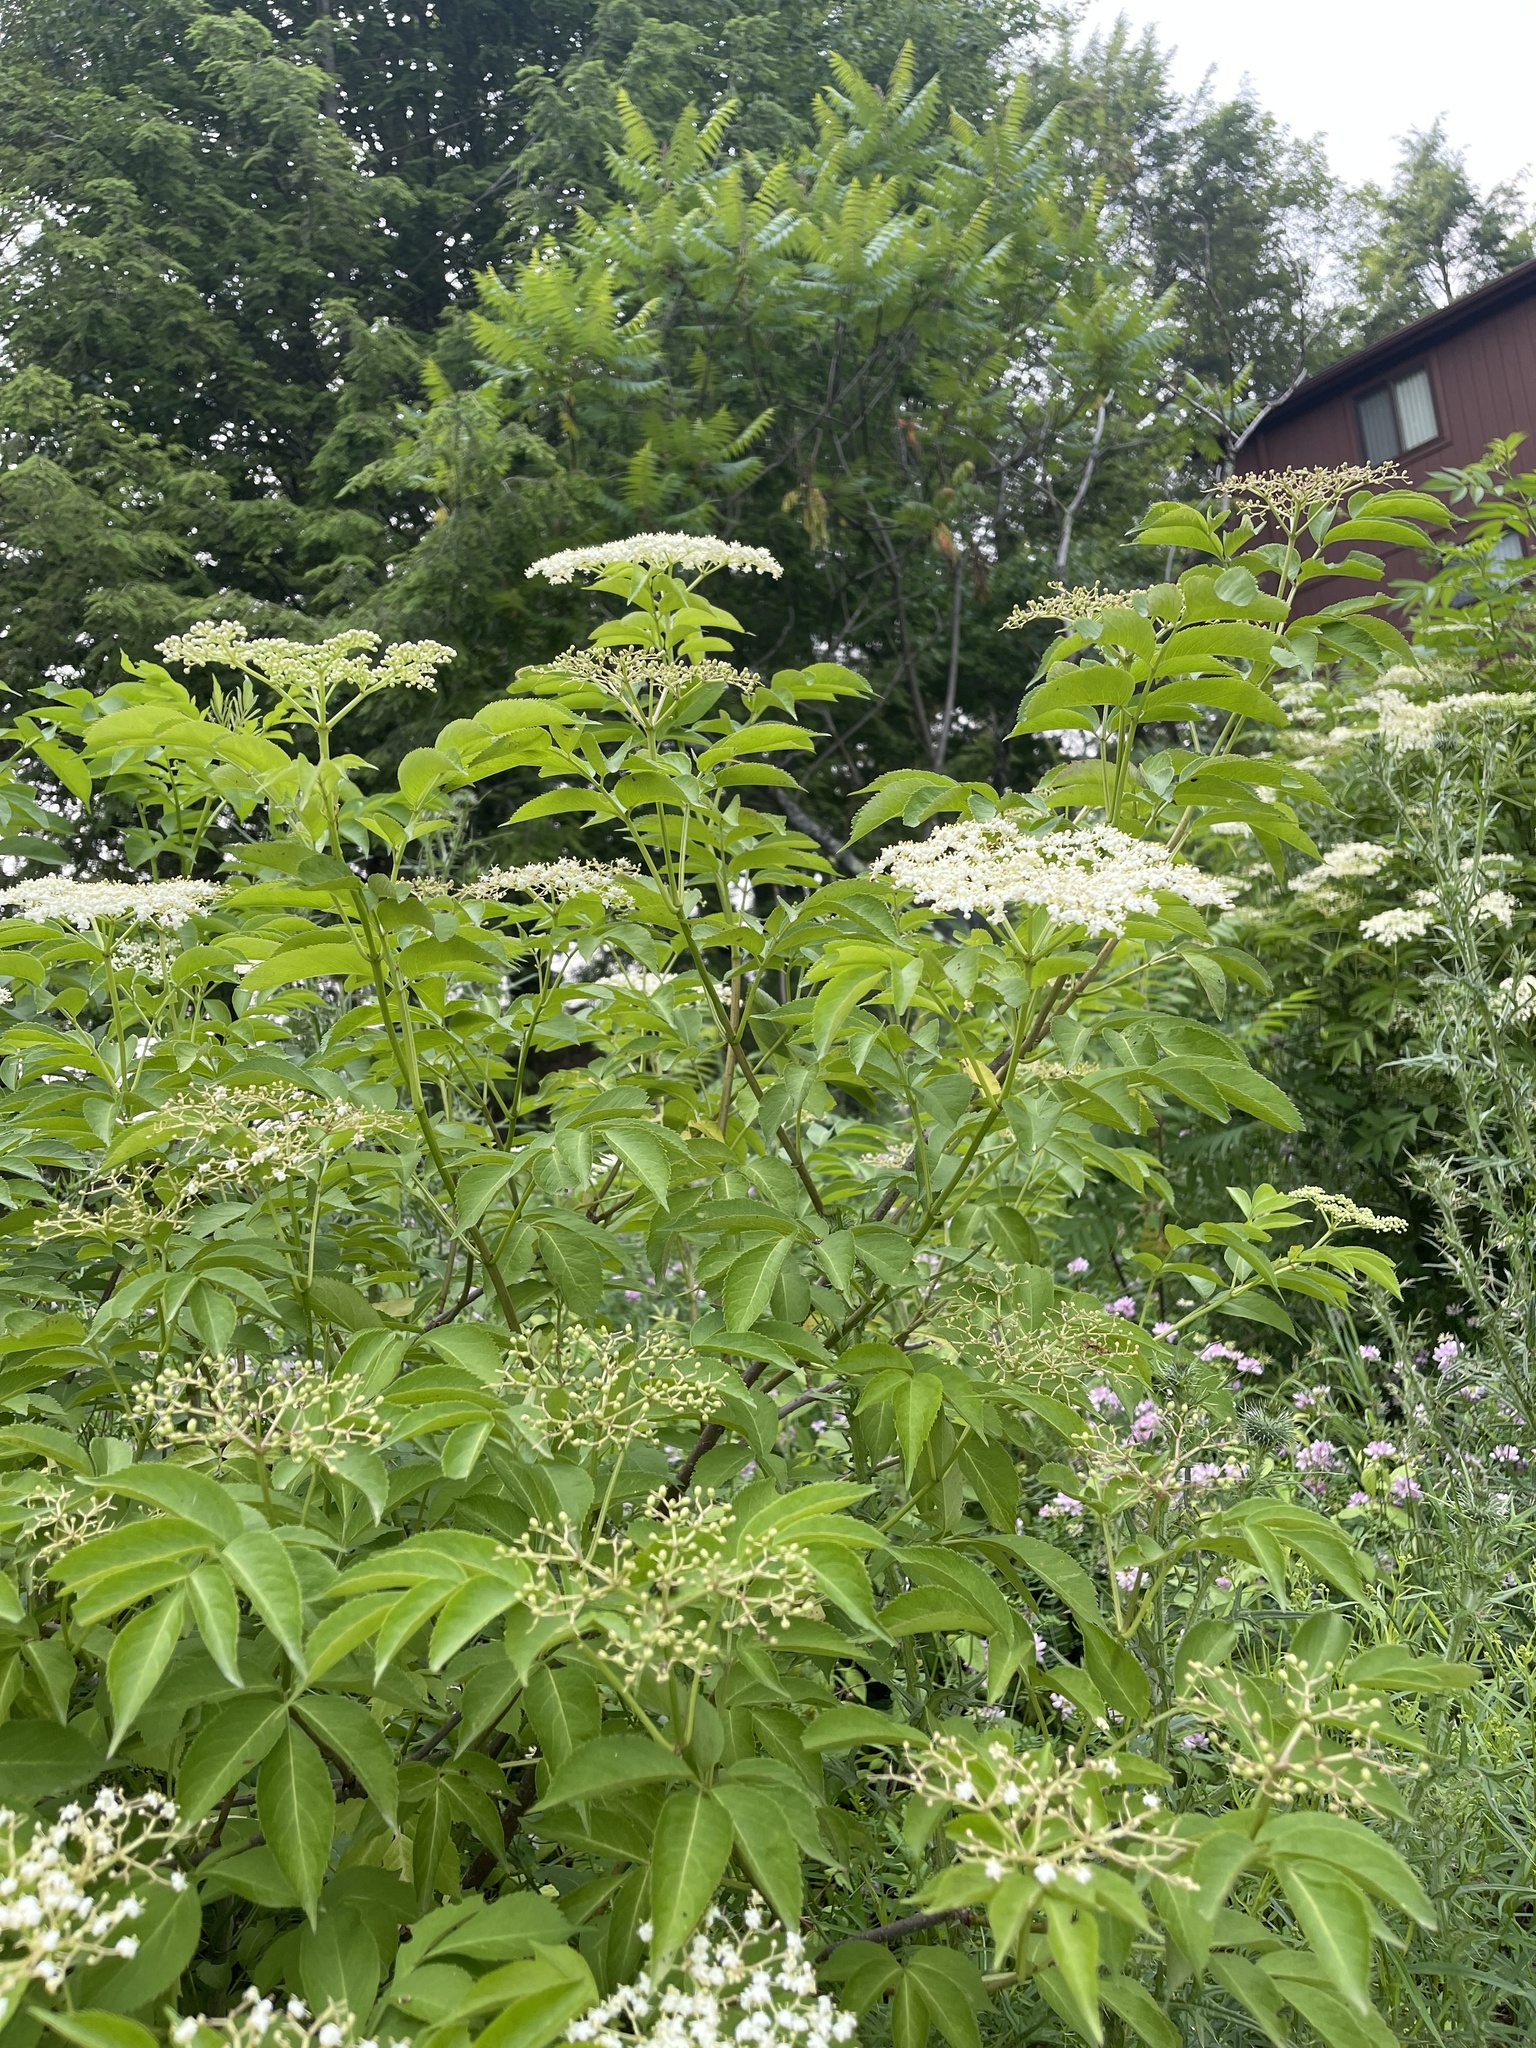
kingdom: Plantae
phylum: Tracheophyta
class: Magnoliopsida
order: Dipsacales
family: Viburnaceae
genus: Sambucus
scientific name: Sambucus canadensis
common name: American elder
